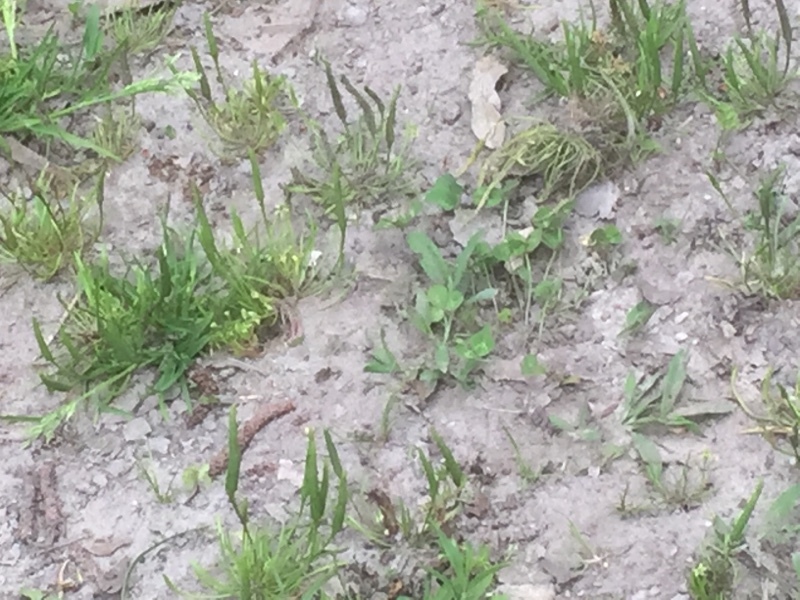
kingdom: Plantae
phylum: Tracheophyta
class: Magnoliopsida
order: Ranunculales
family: Ranunculaceae
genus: Myosurus
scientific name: Myosurus minimus
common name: Mousetail
